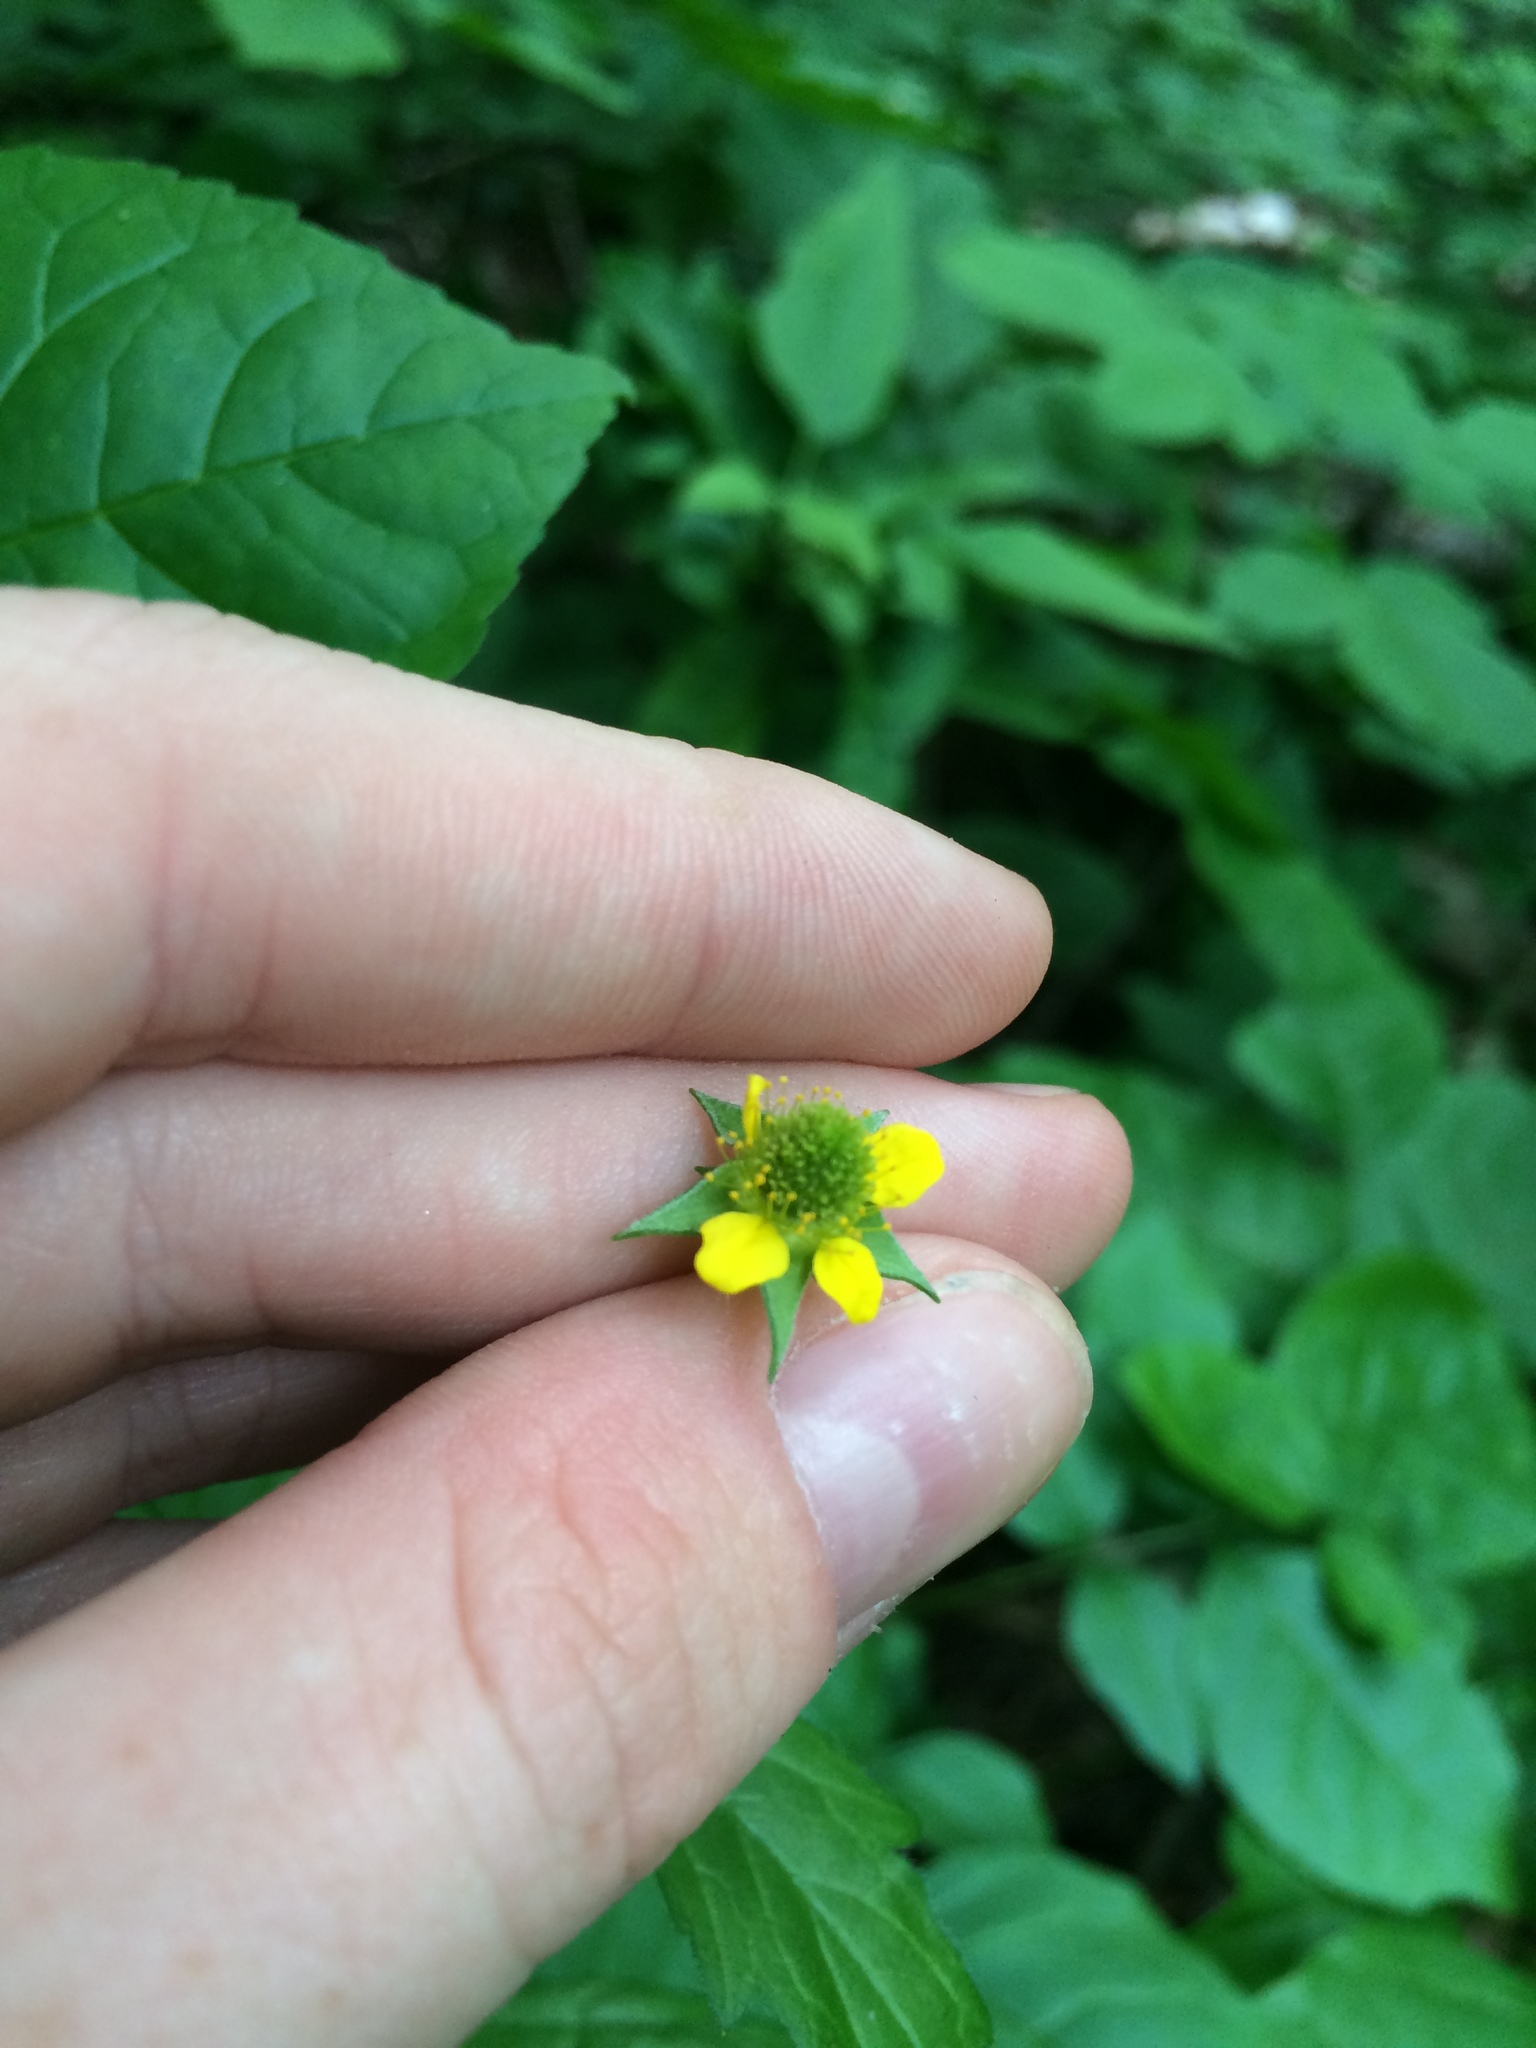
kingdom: Plantae
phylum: Tracheophyta
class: Magnoliopsida
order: Rosales
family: Rosaceae
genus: Geum
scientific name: Geum urbanum
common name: Wood avens
